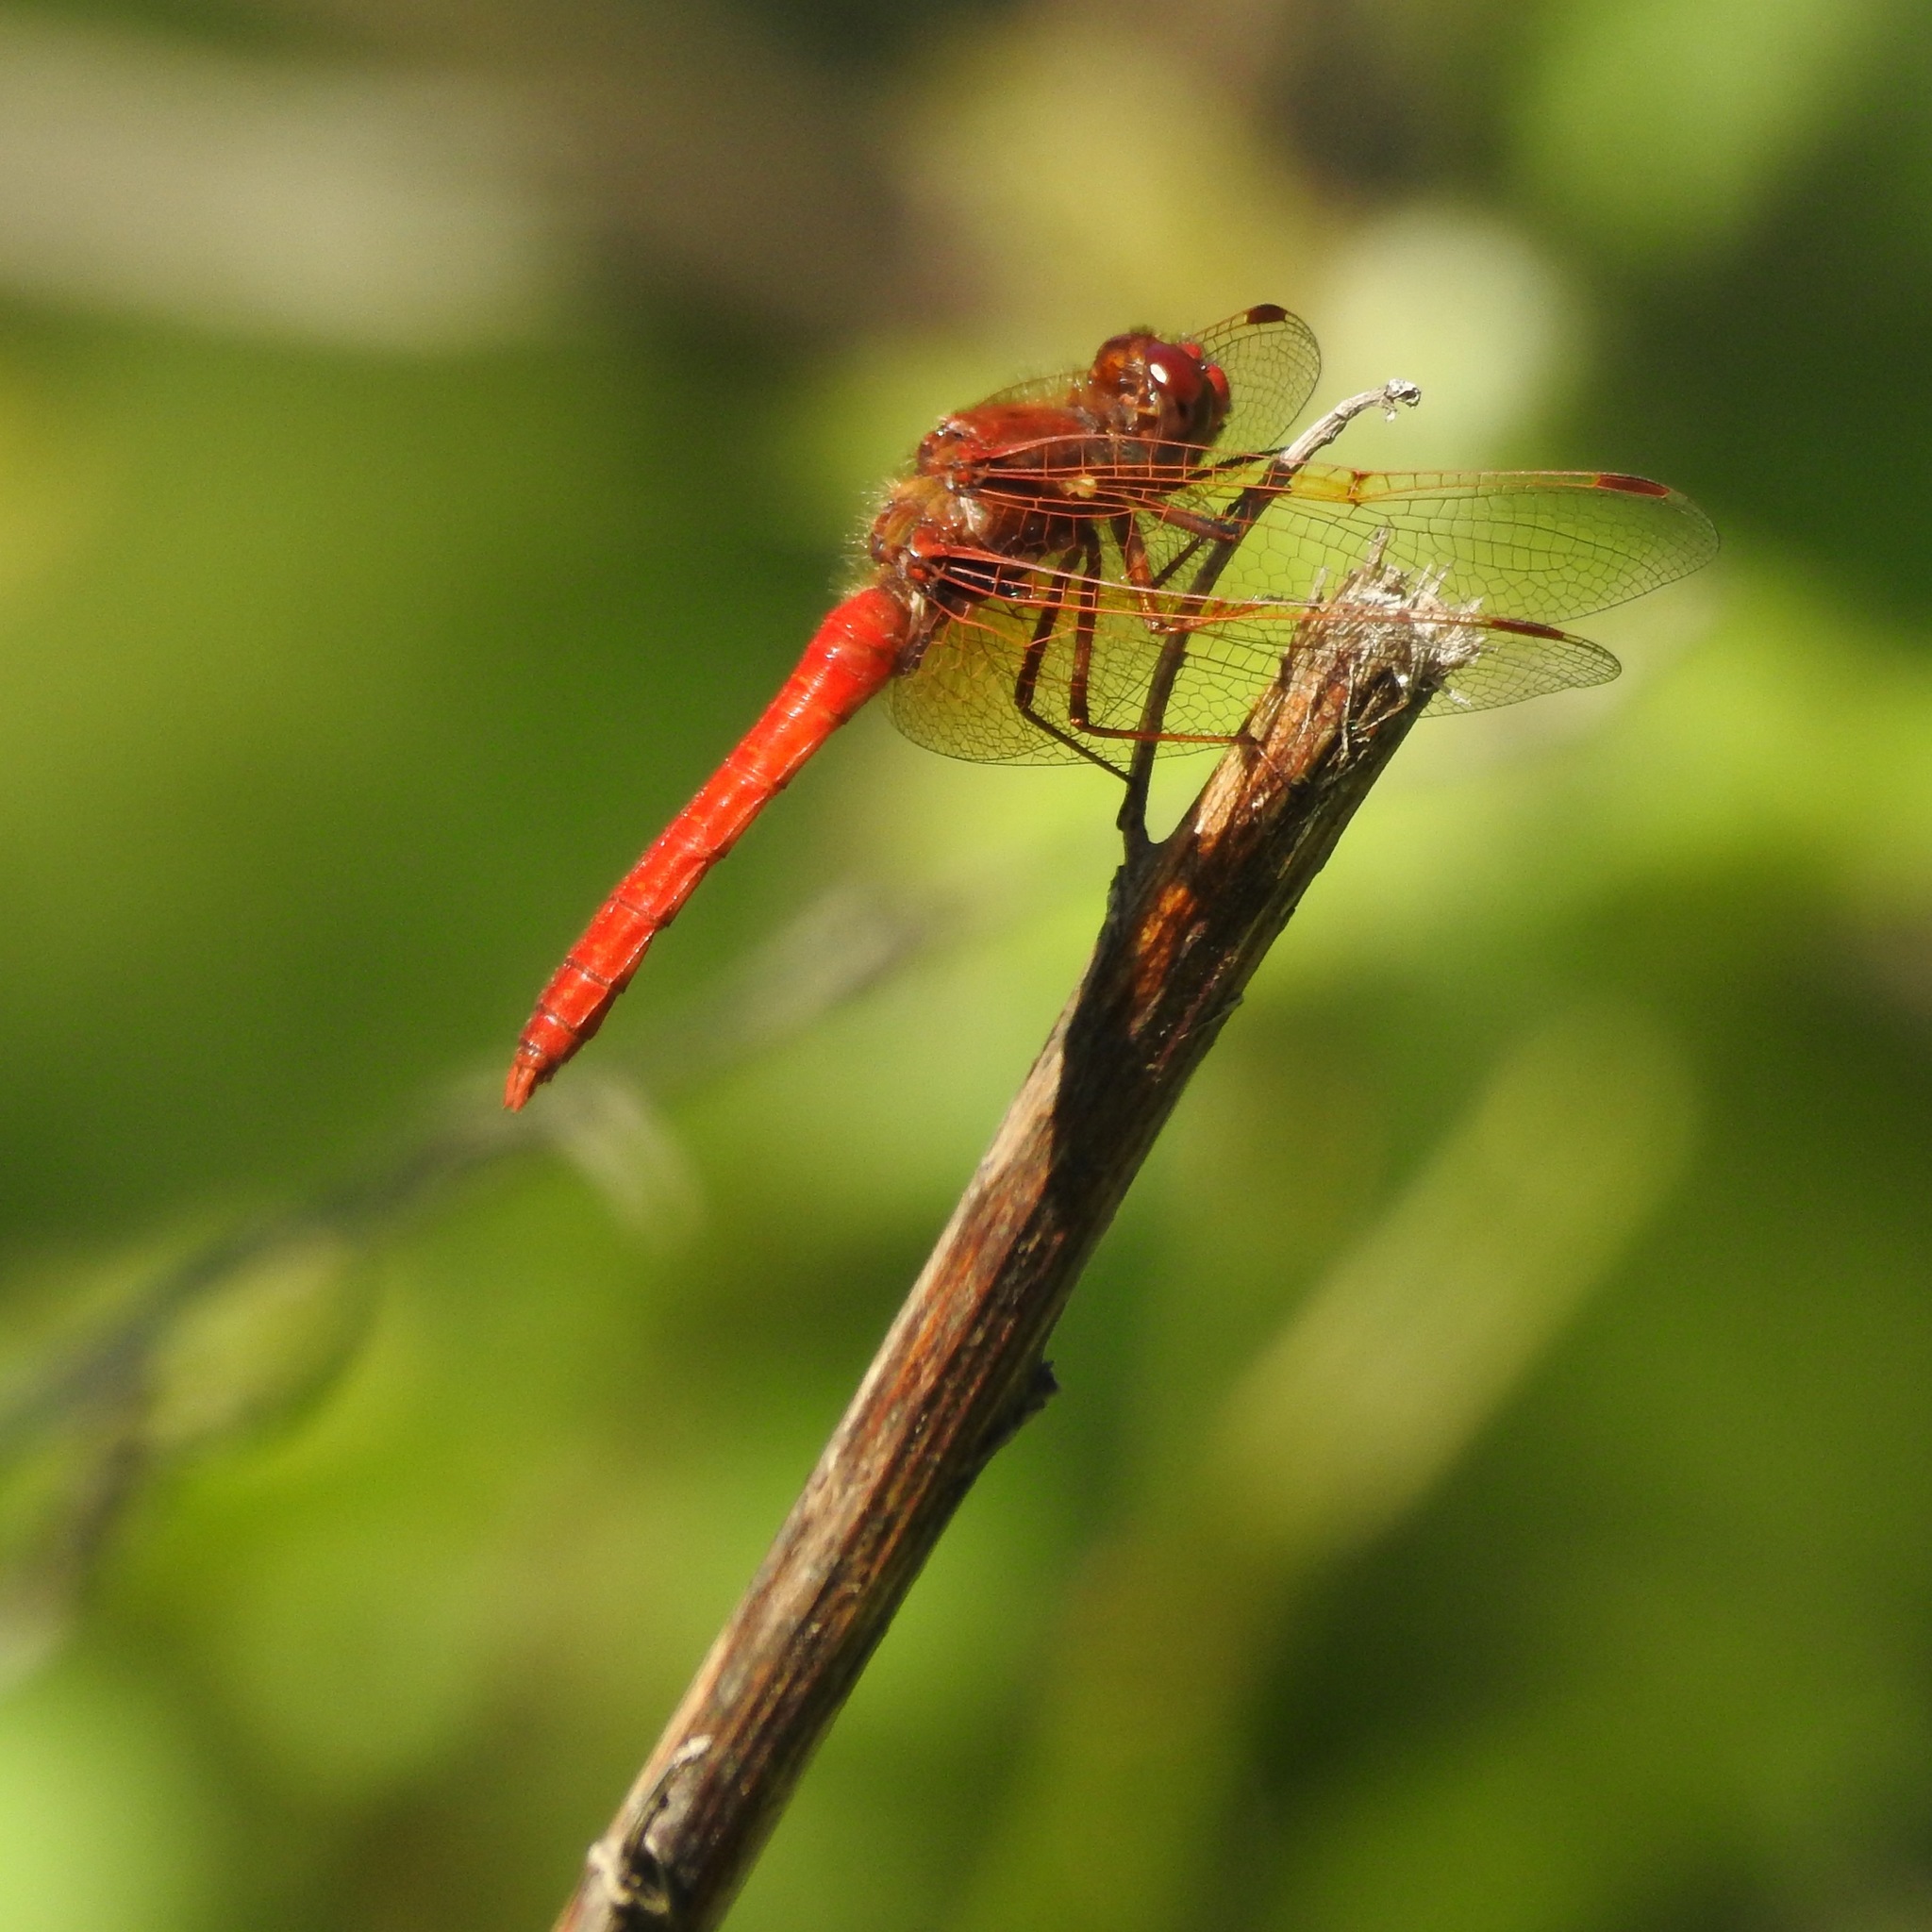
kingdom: Animalia
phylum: Arthropoda
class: Insecta
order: Odonata
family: Libellulidae
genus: Sympetrum
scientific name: Sympetrum illotum
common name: Cardinal meadowhawk
